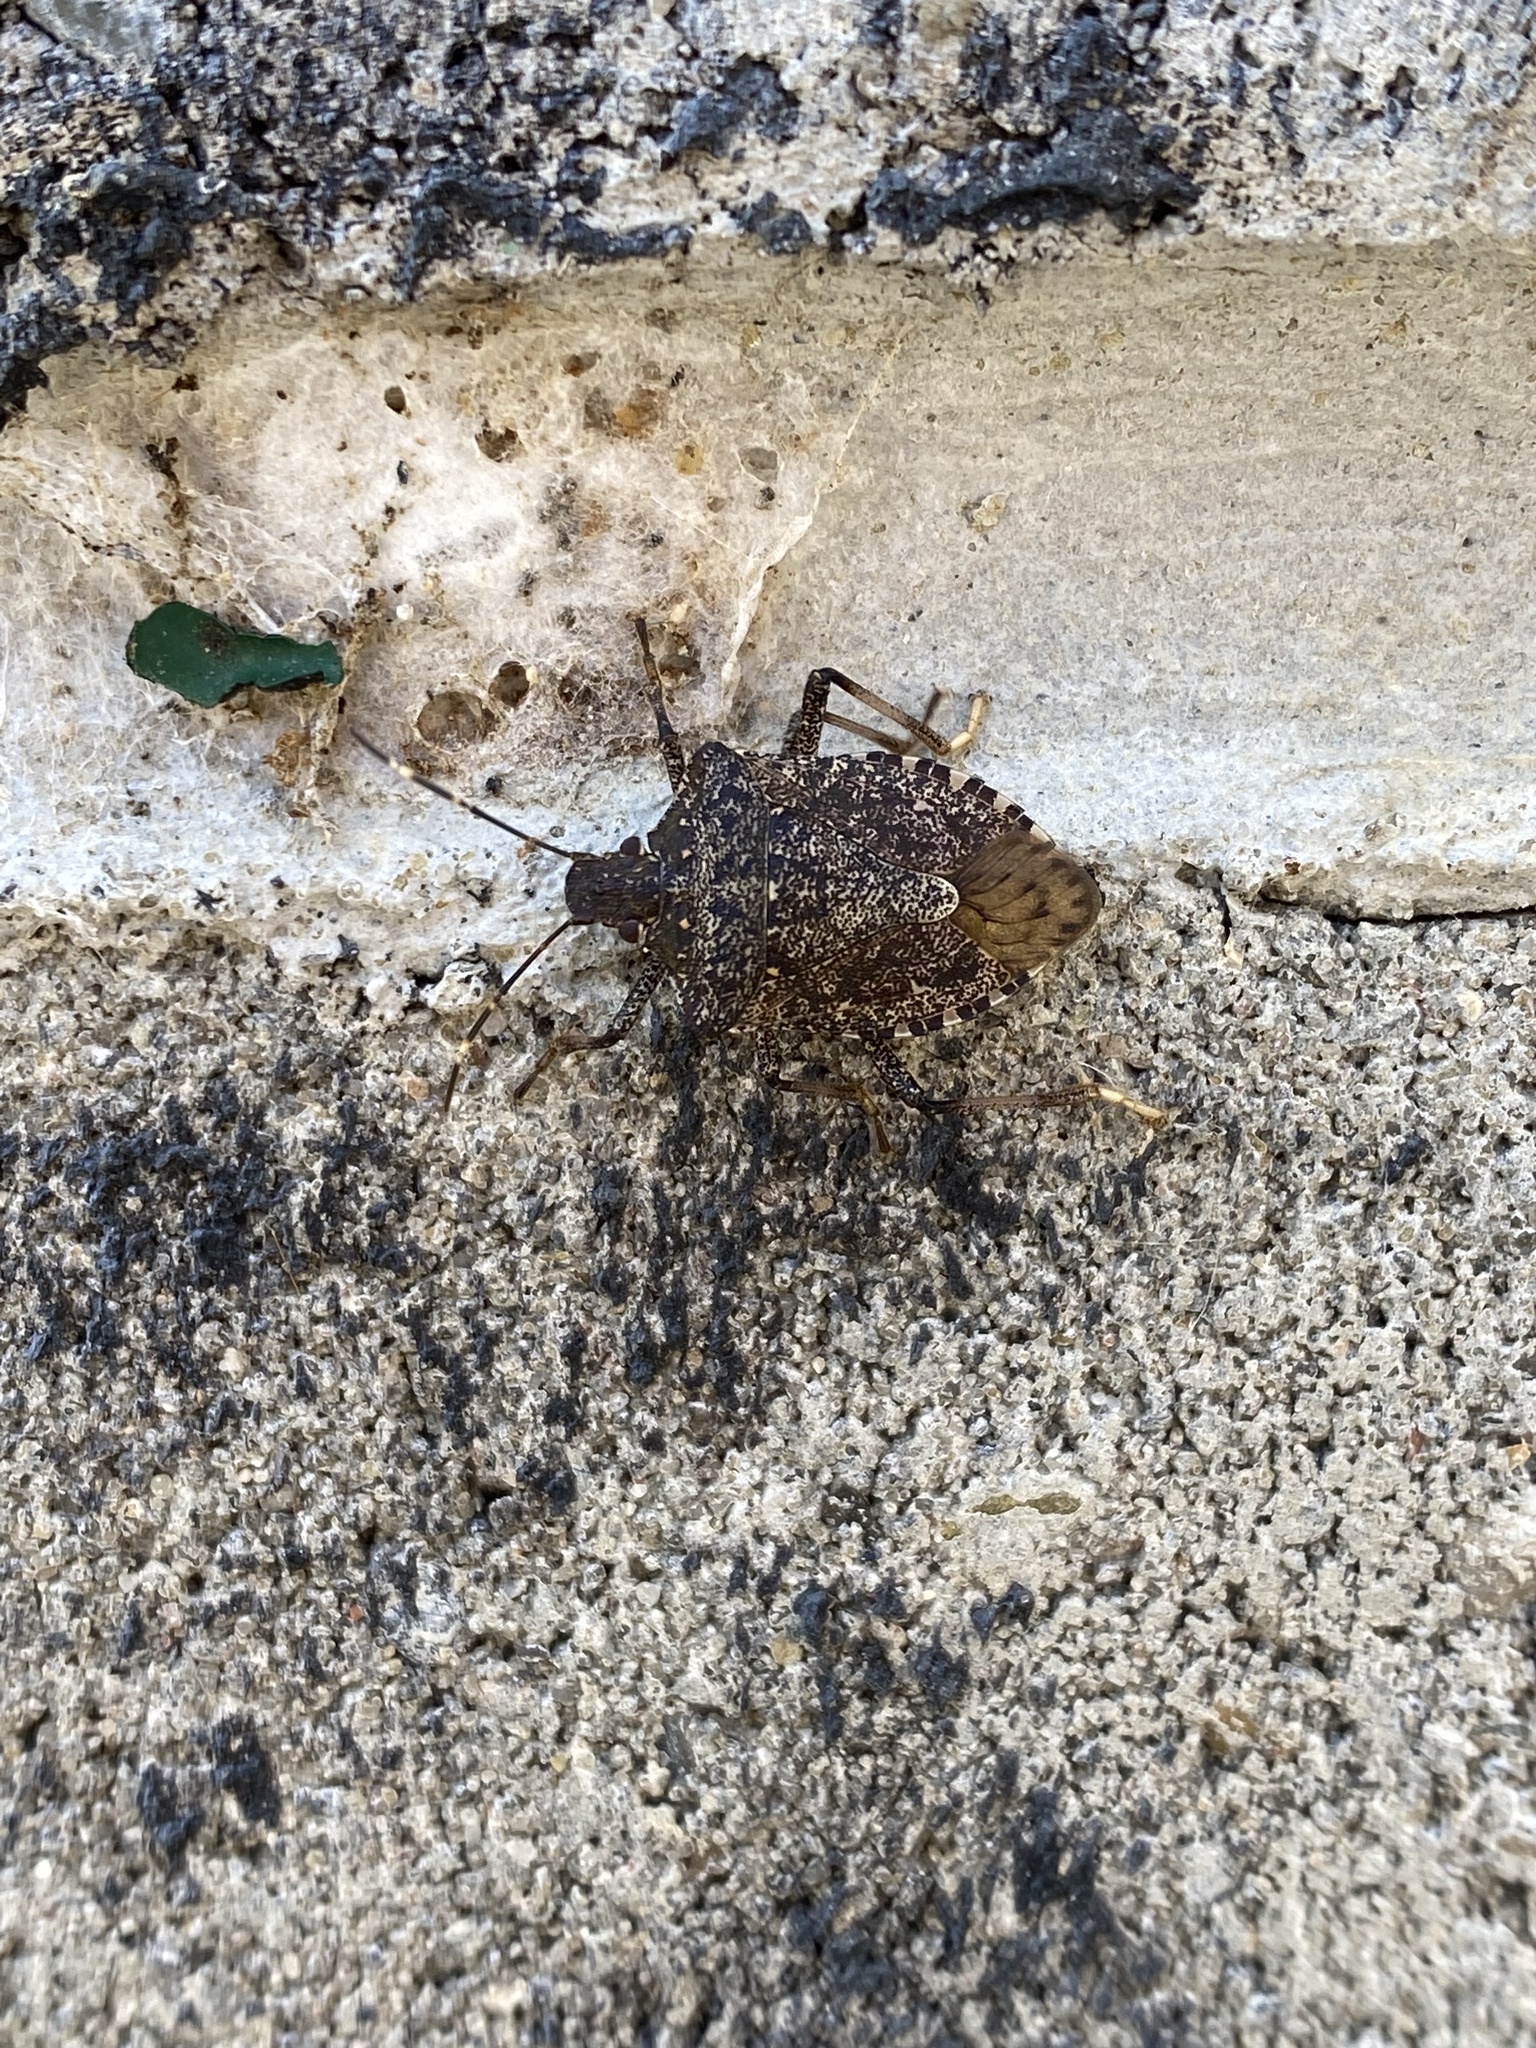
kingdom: Animalia
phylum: Arthropoda
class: Insecta
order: Hemiptera
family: Pentatomidae
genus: Halyomorpha
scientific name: Halyomorpha halys
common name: Brown marmorated stink bug
